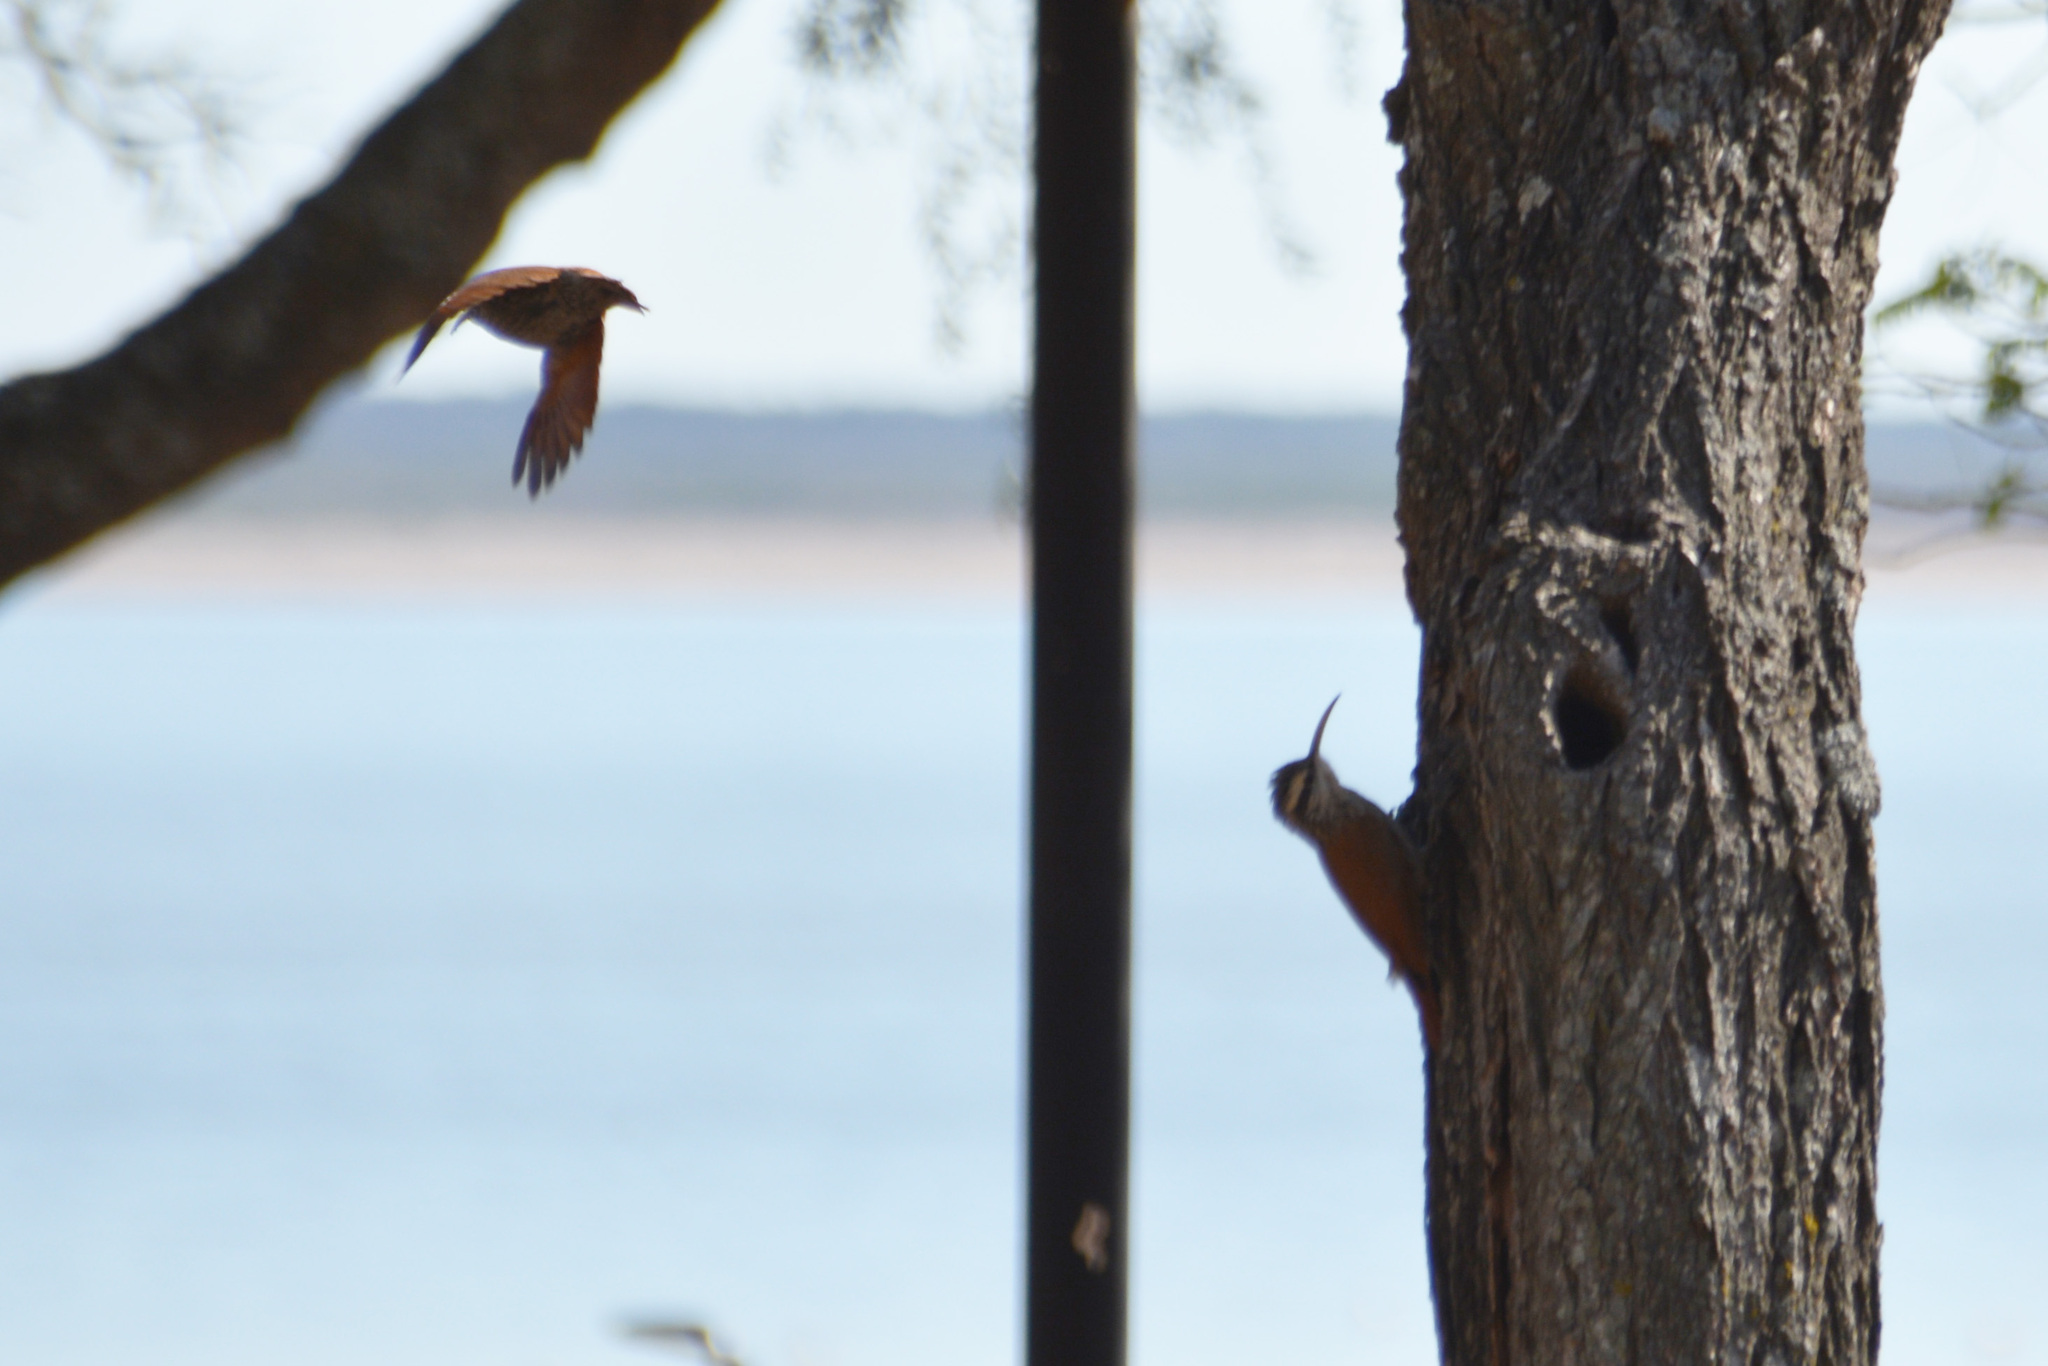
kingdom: Animalia
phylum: Chordata
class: Aves
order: Passeriformes
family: Furnariidae
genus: Lepidocolaptes
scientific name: Lepidocolaptes angustirostris
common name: Narrow-billed woodcreeper
